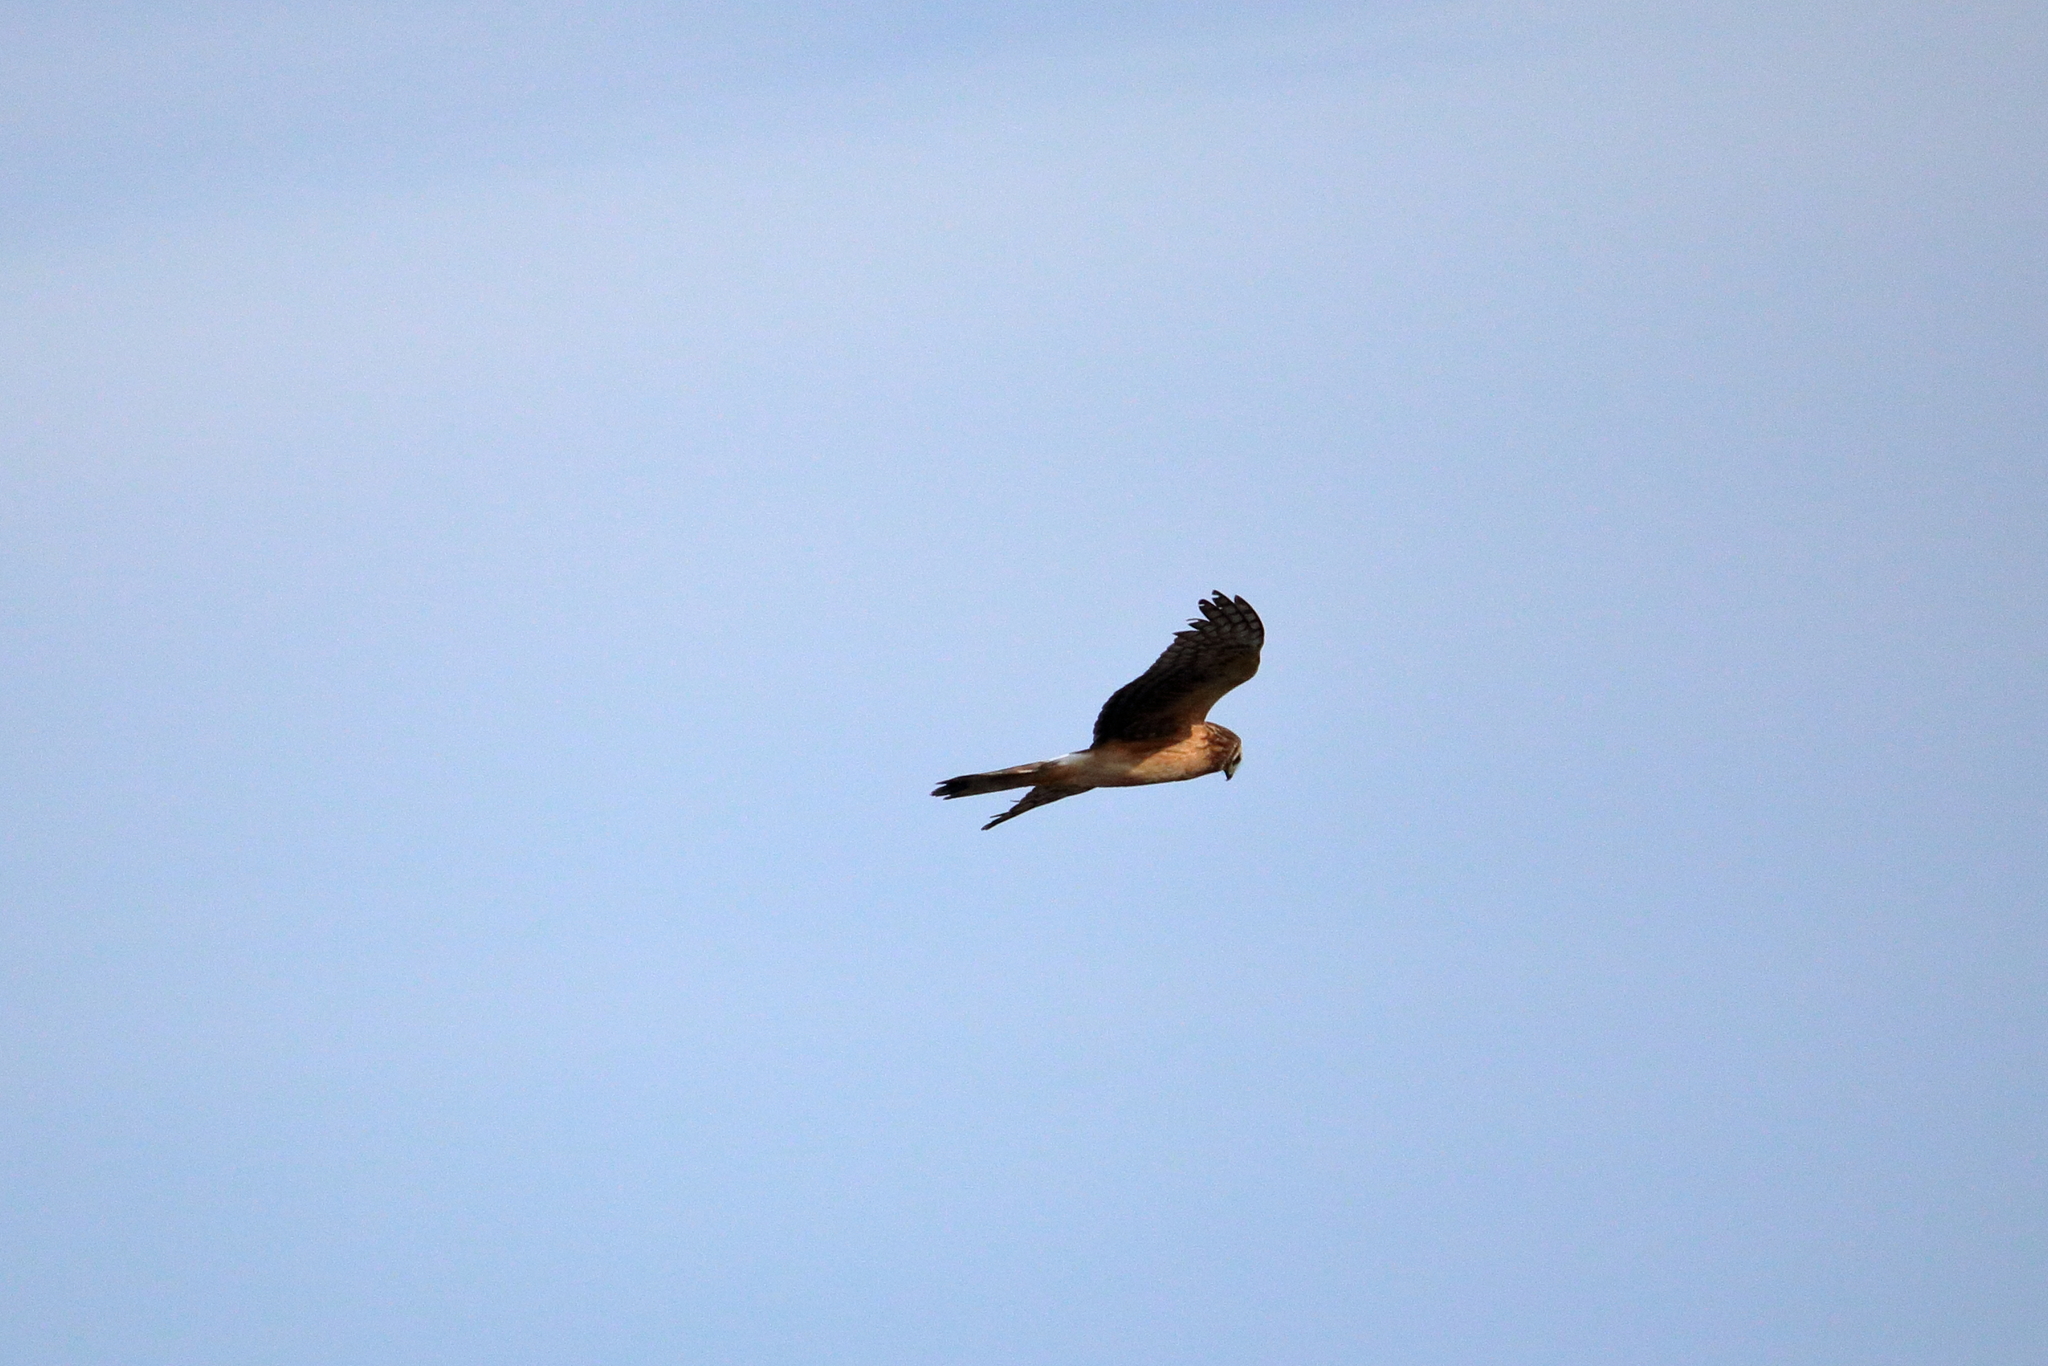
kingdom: Animalia
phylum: Chordata
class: Aves
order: Accipitriformes
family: Accipitridae
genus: Circus
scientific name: Circus cyaneus
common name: Hen harrier
